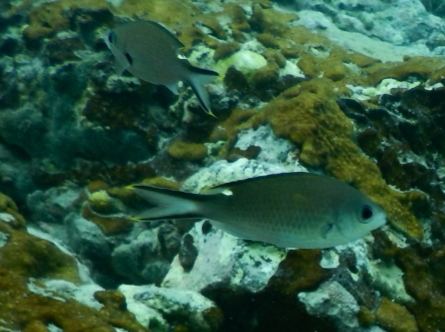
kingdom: Animalia
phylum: Chordata
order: Perciformes
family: Pomacentridae
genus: Chromis
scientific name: Chromis multilineata
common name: Brown chromis
